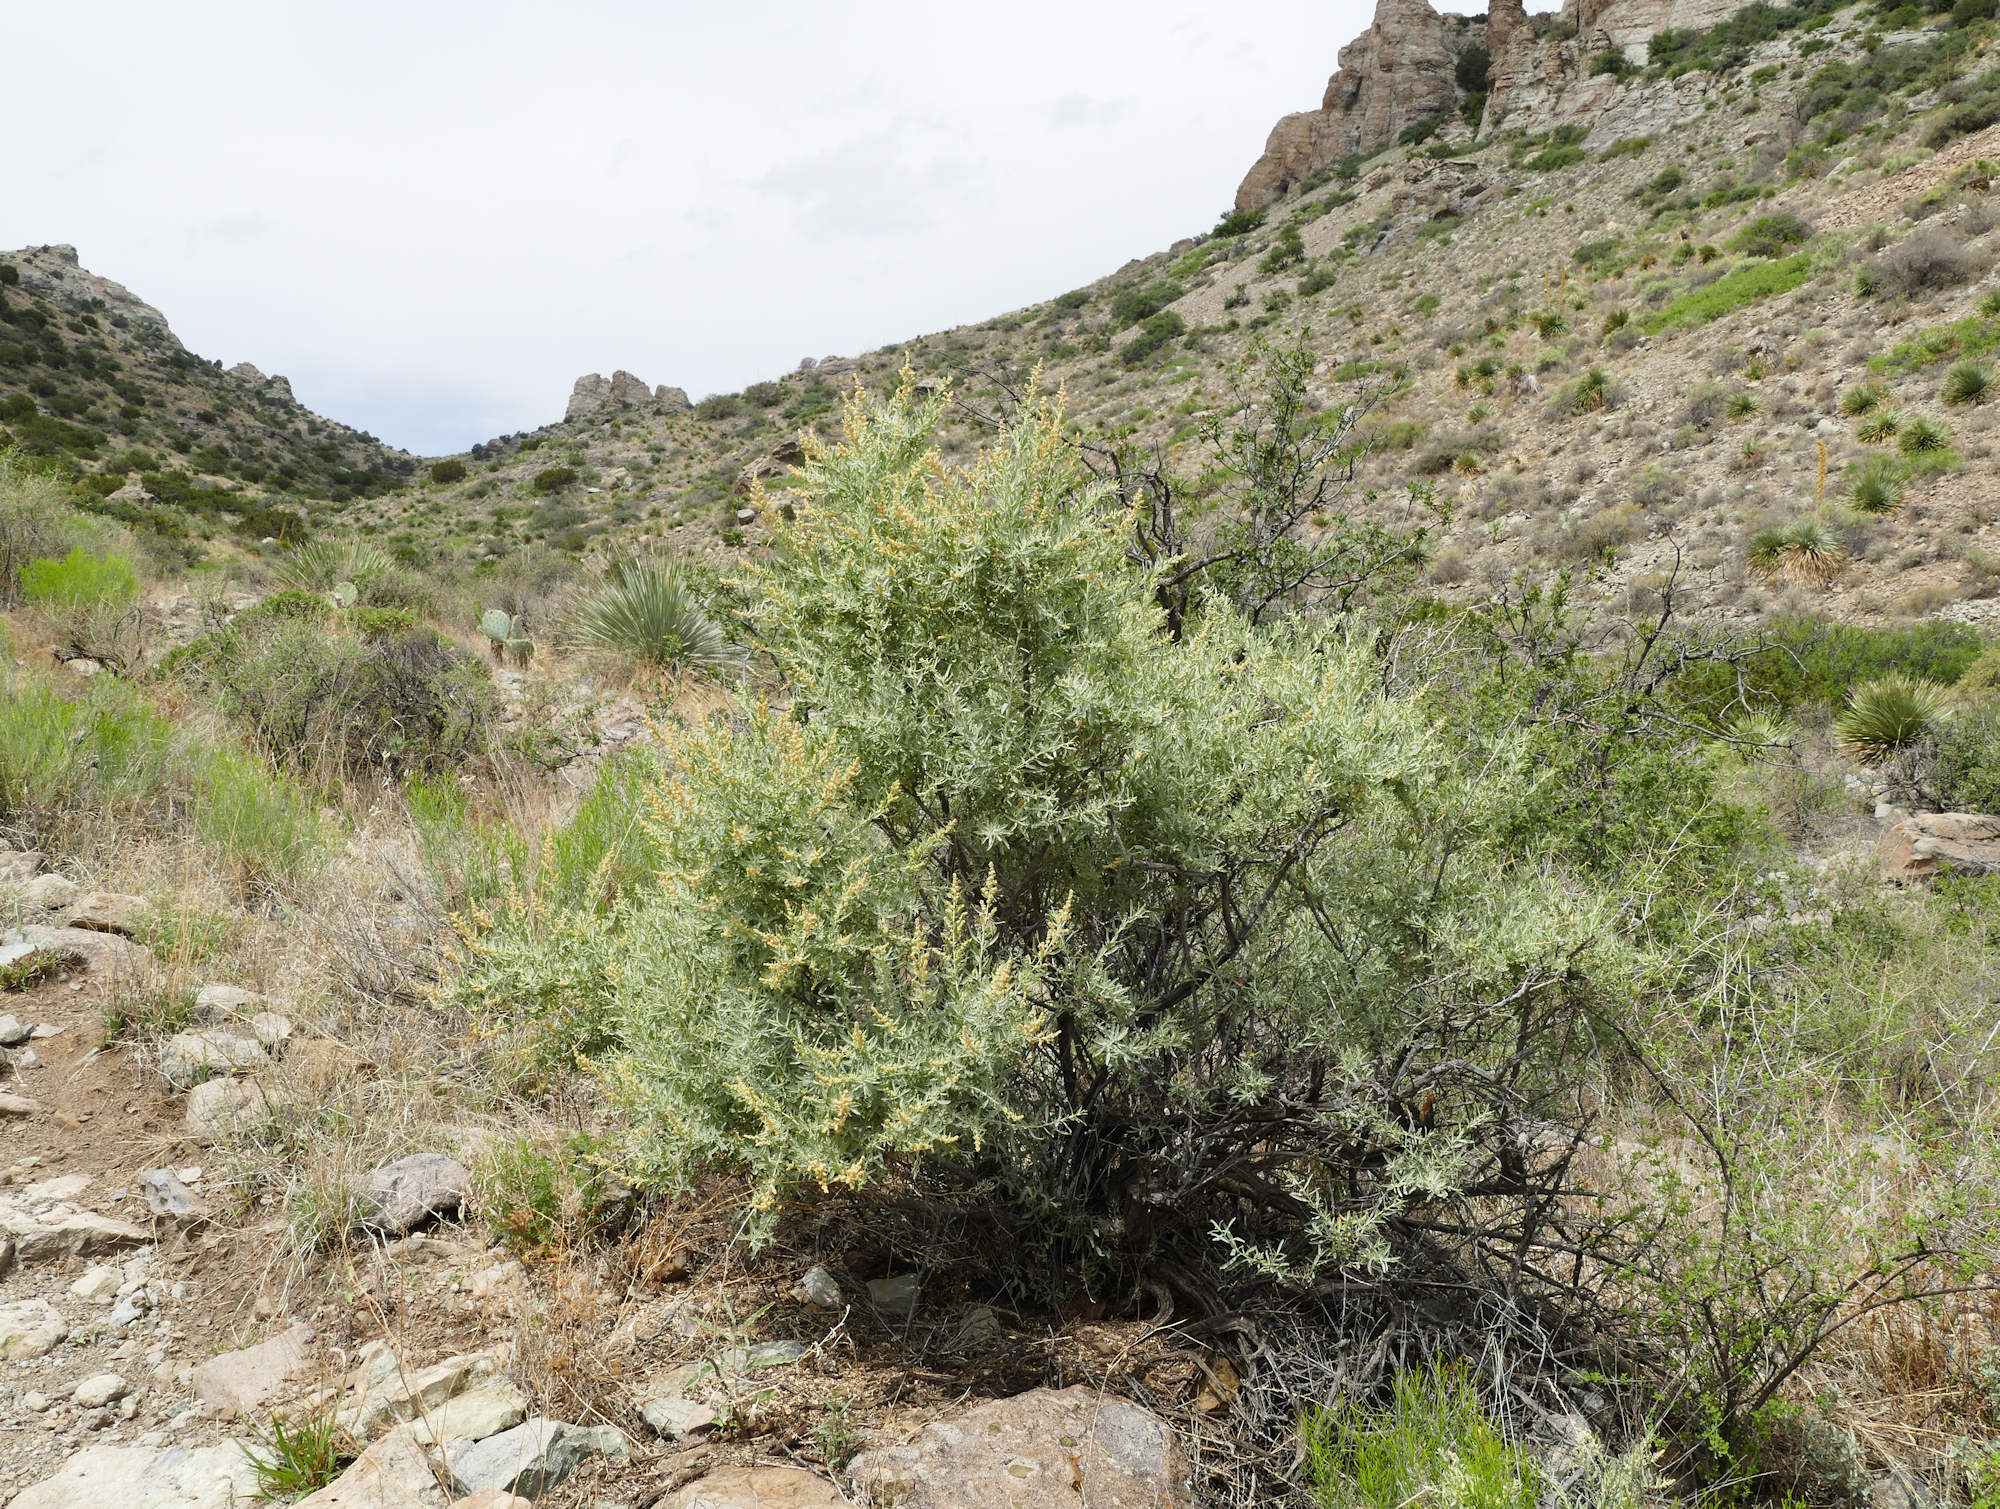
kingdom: Plantae
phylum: Tracheophyta
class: Magnoliopsida
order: Caryophyllales
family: Amaranthaceae
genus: Atriplex
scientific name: Atriplex canescens
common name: Four-wing saltbush
